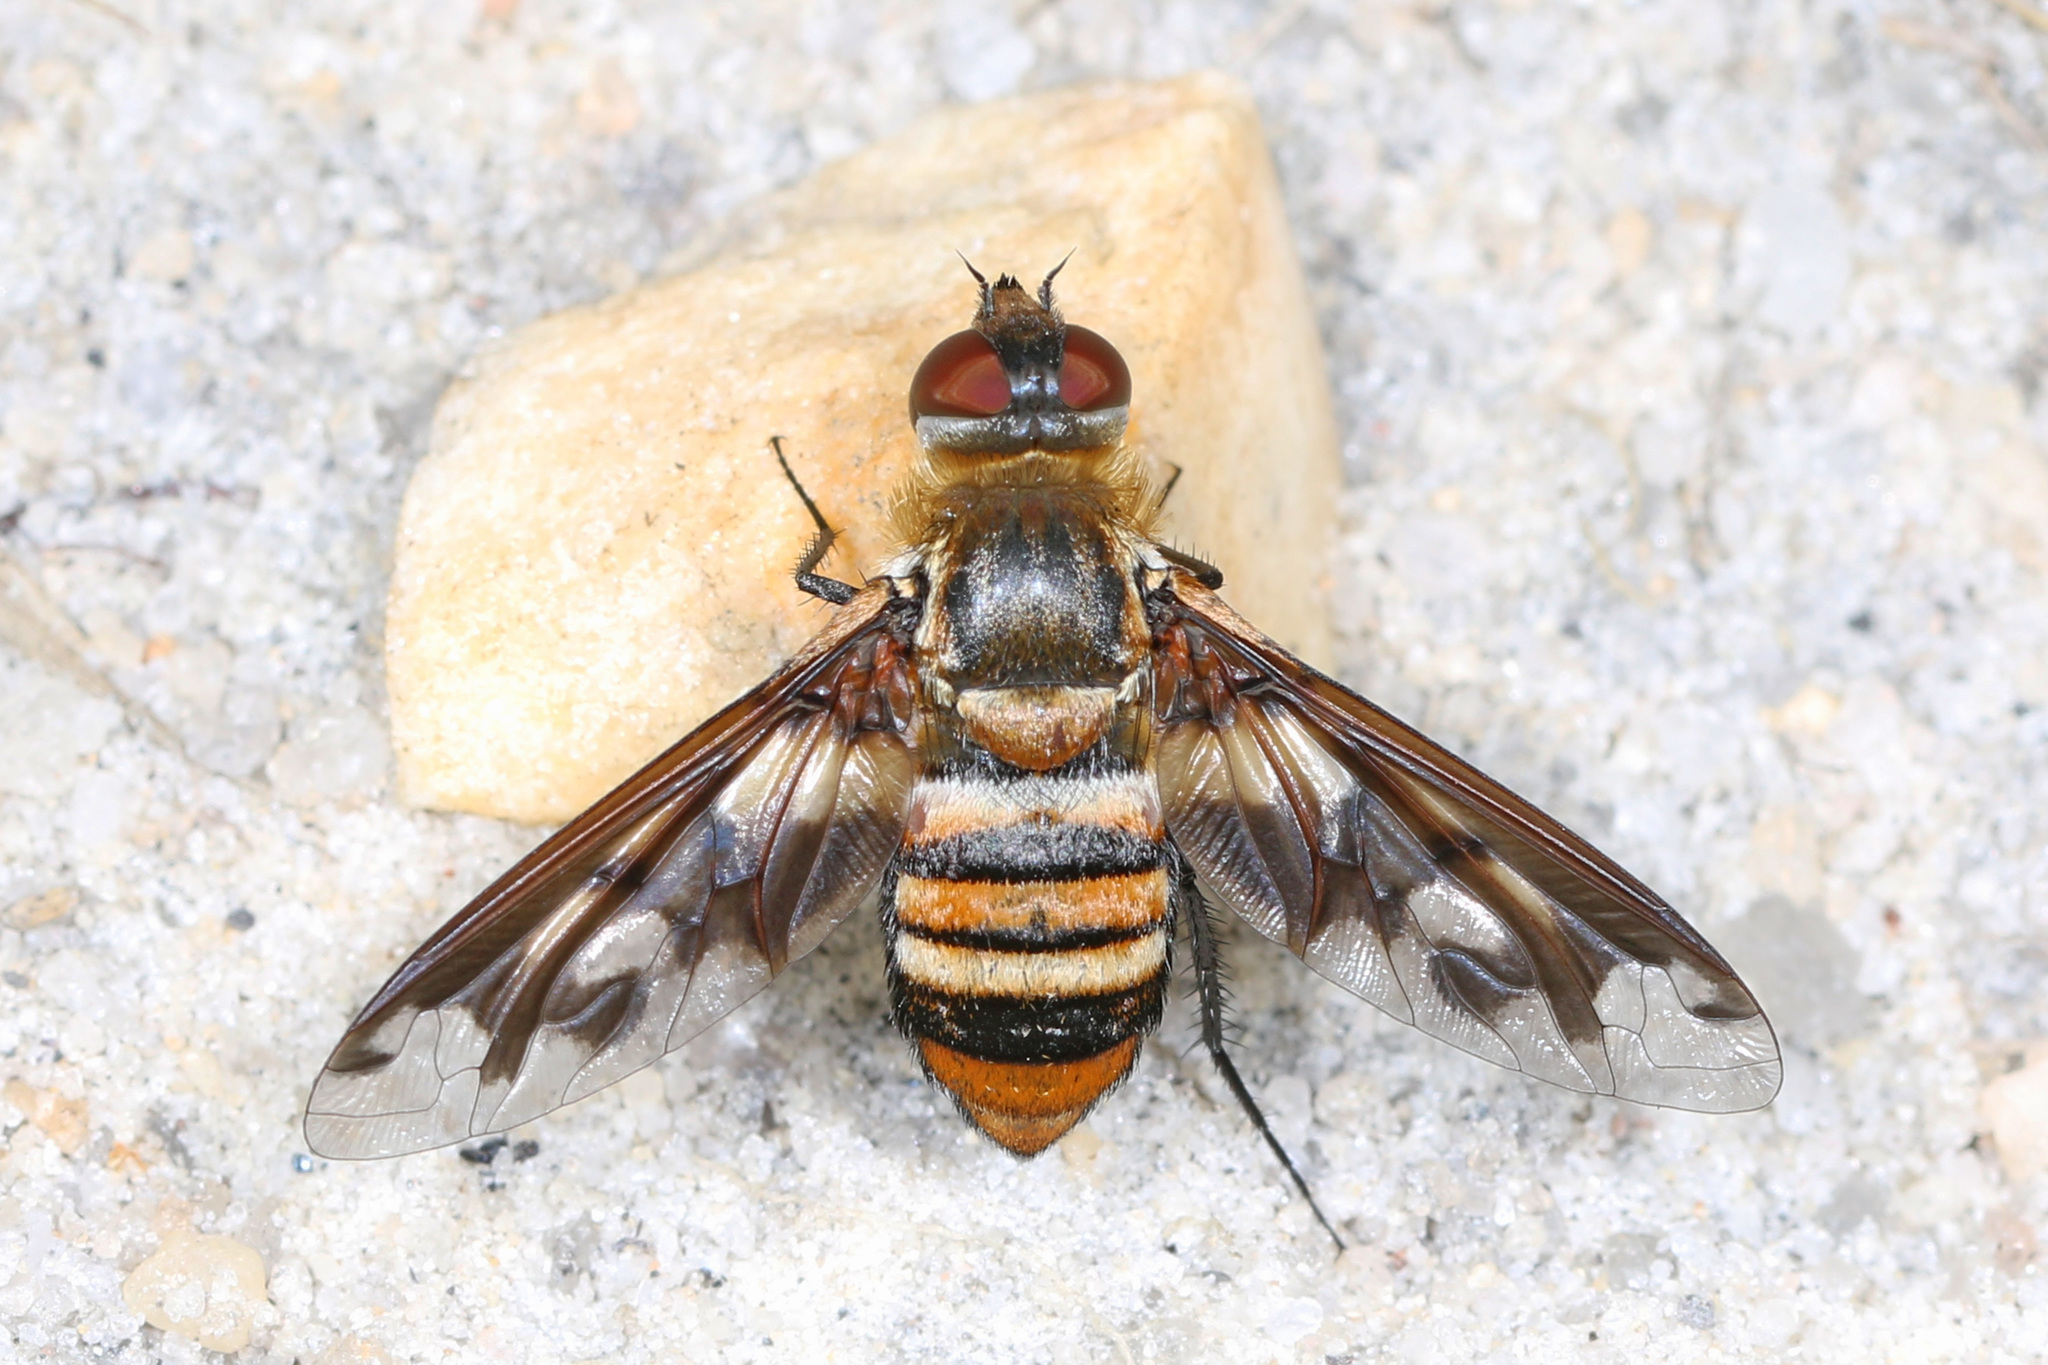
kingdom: Animalia
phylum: Arthropoda
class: Insecta
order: Diptera
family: Bombyliidae
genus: Exoprosopa
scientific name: Exoprosopa fascipennis
